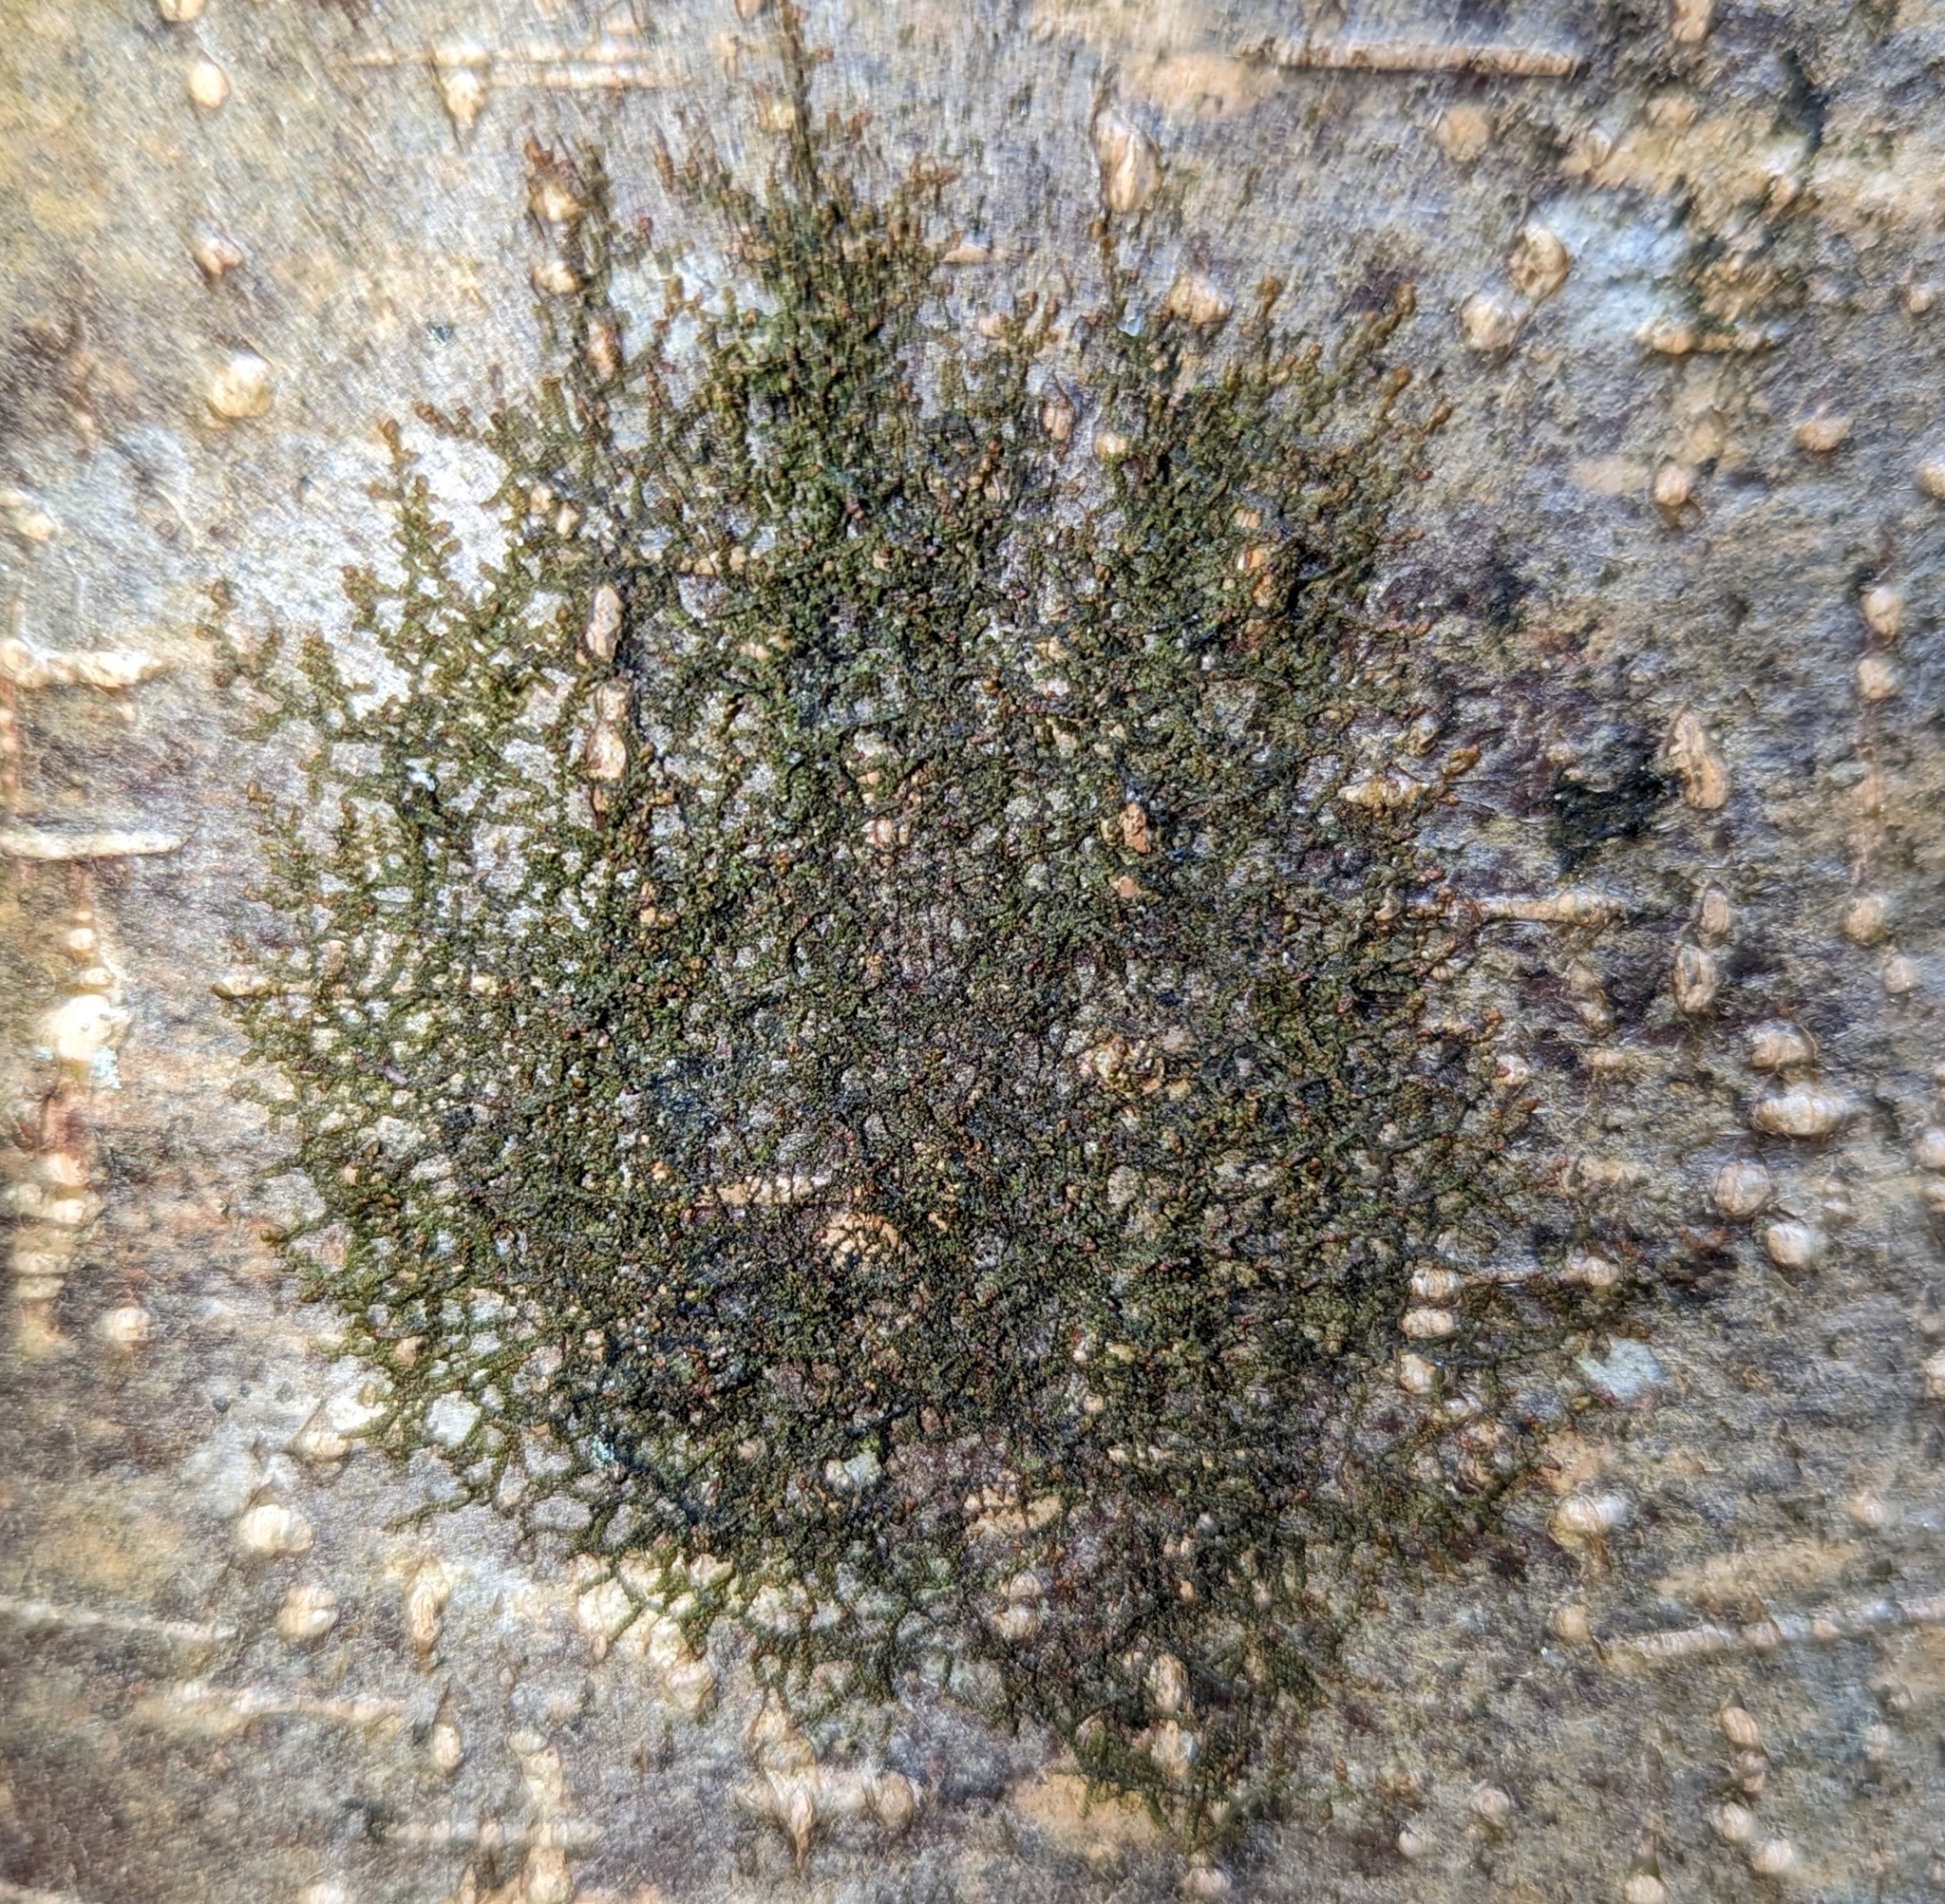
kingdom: Plantae
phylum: Marchantiophyta
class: Jungermanniopsida
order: Porellales
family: Frullaniaceae
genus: Frullania
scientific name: Frullania nisquallensis
